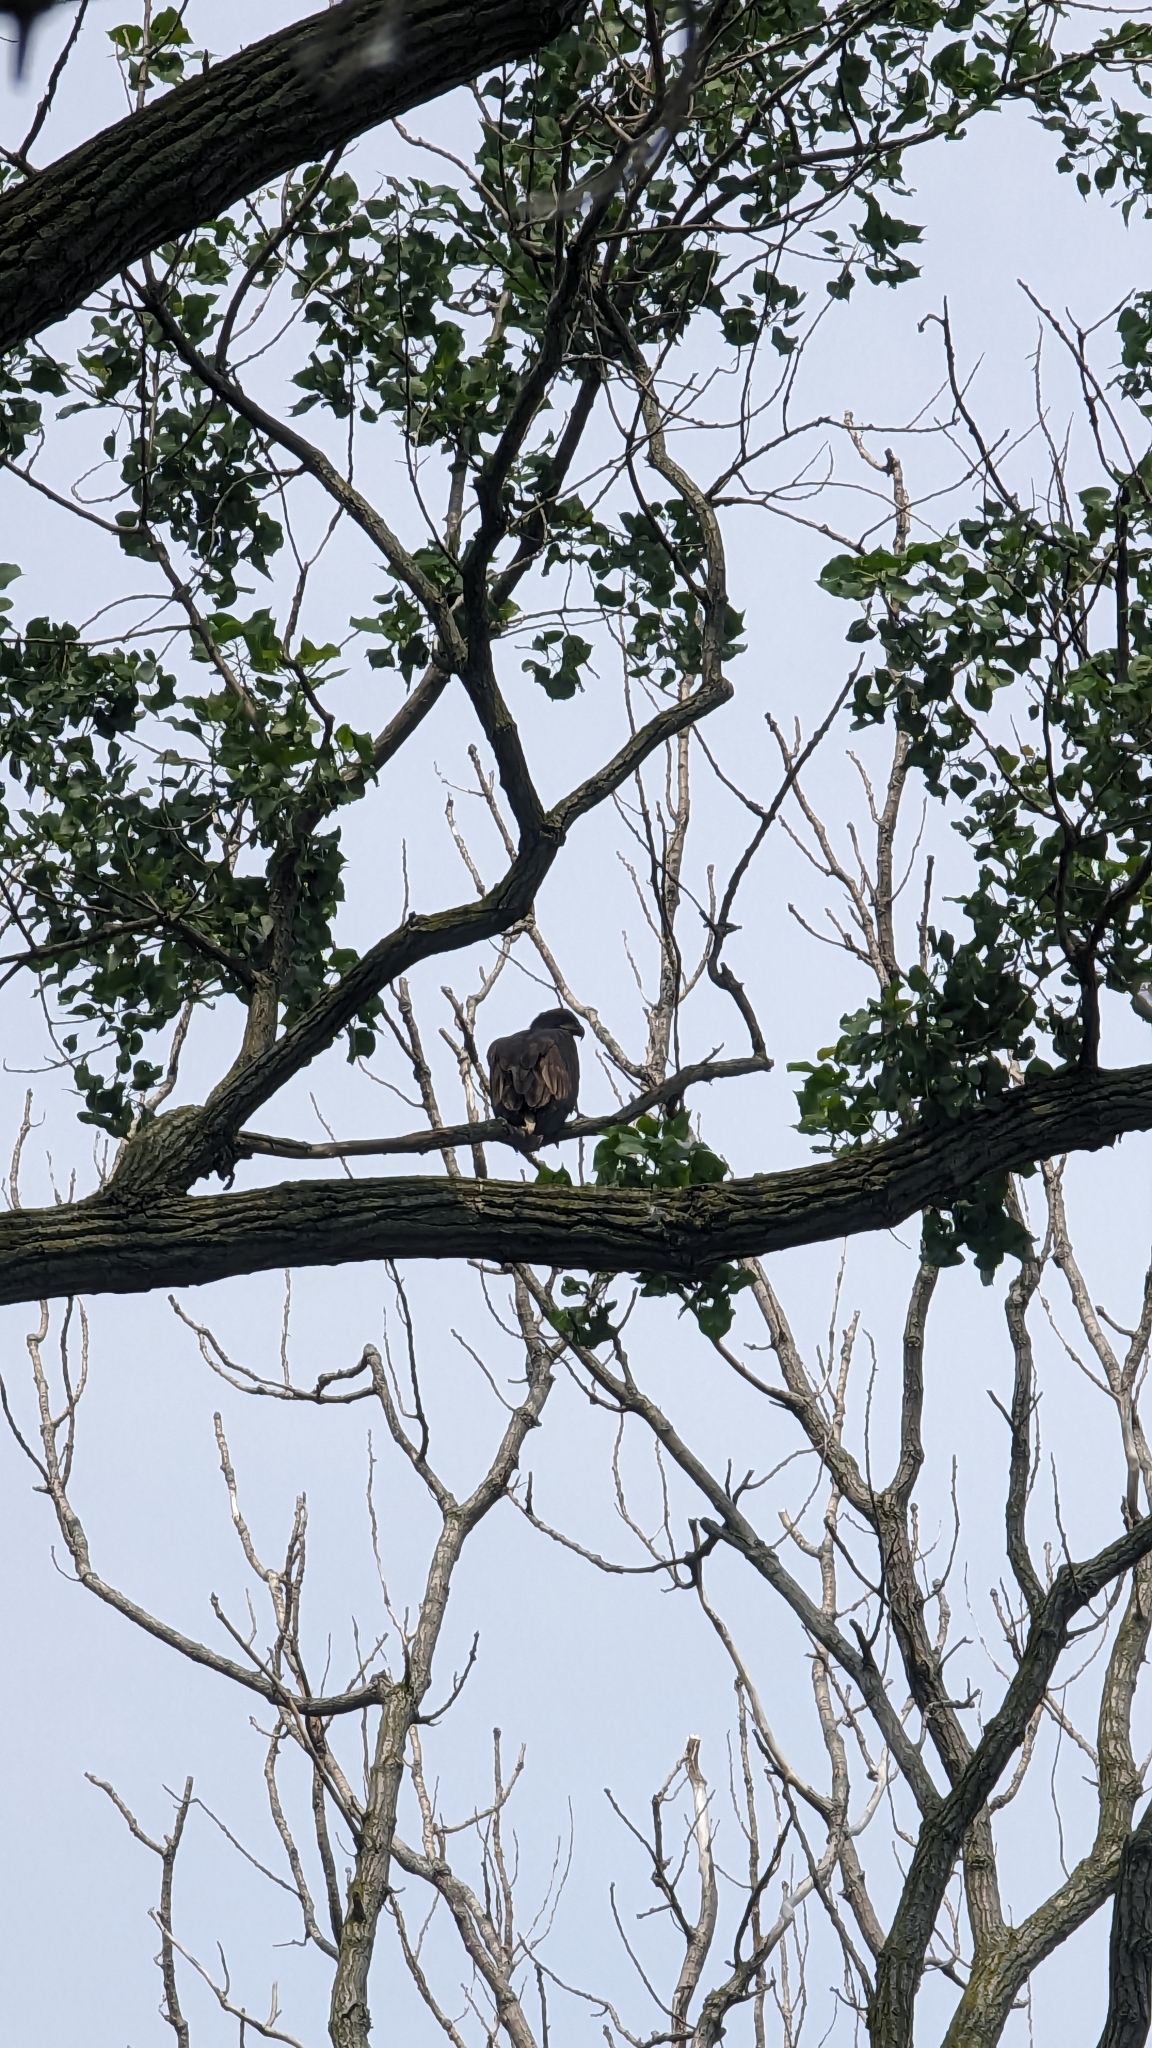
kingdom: Animalia
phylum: Chordata
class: Aves
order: Accipitriformes
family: Accipitridae
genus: Haliaeetus
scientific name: Haliaeetus leucocephalus
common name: Bald eagle
